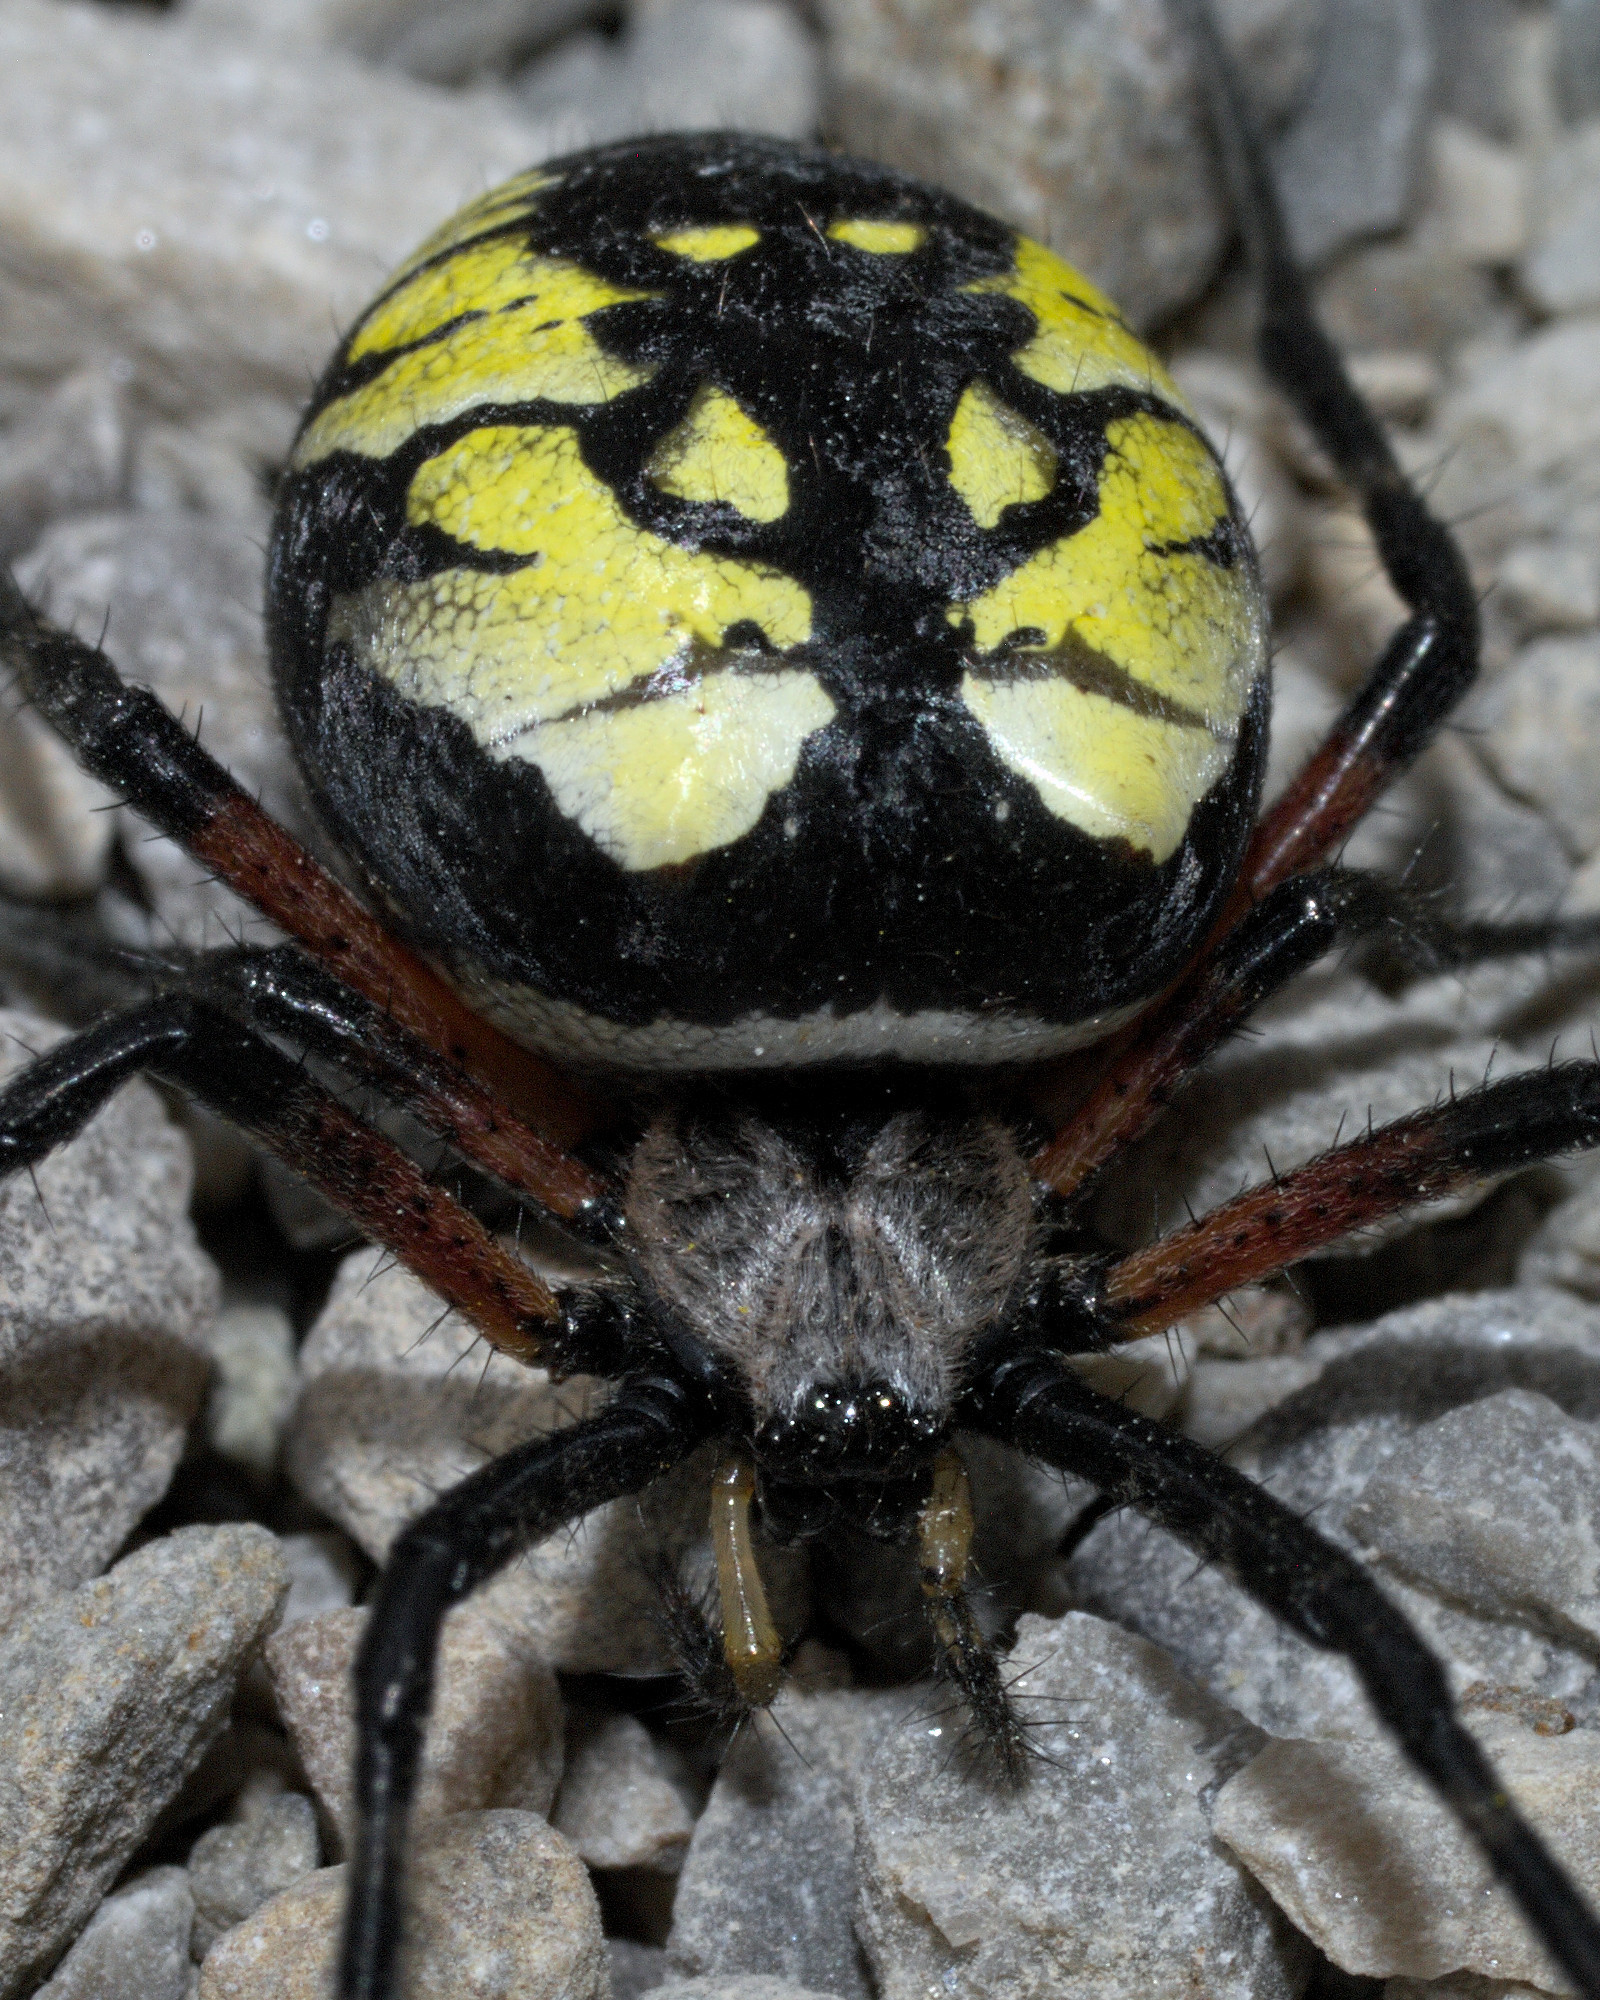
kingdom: Animalia
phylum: Arthropoda
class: Arachnida
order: Araneae
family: Araneidae
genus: Argiope
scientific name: Argiope aurantia
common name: Orb weavers
